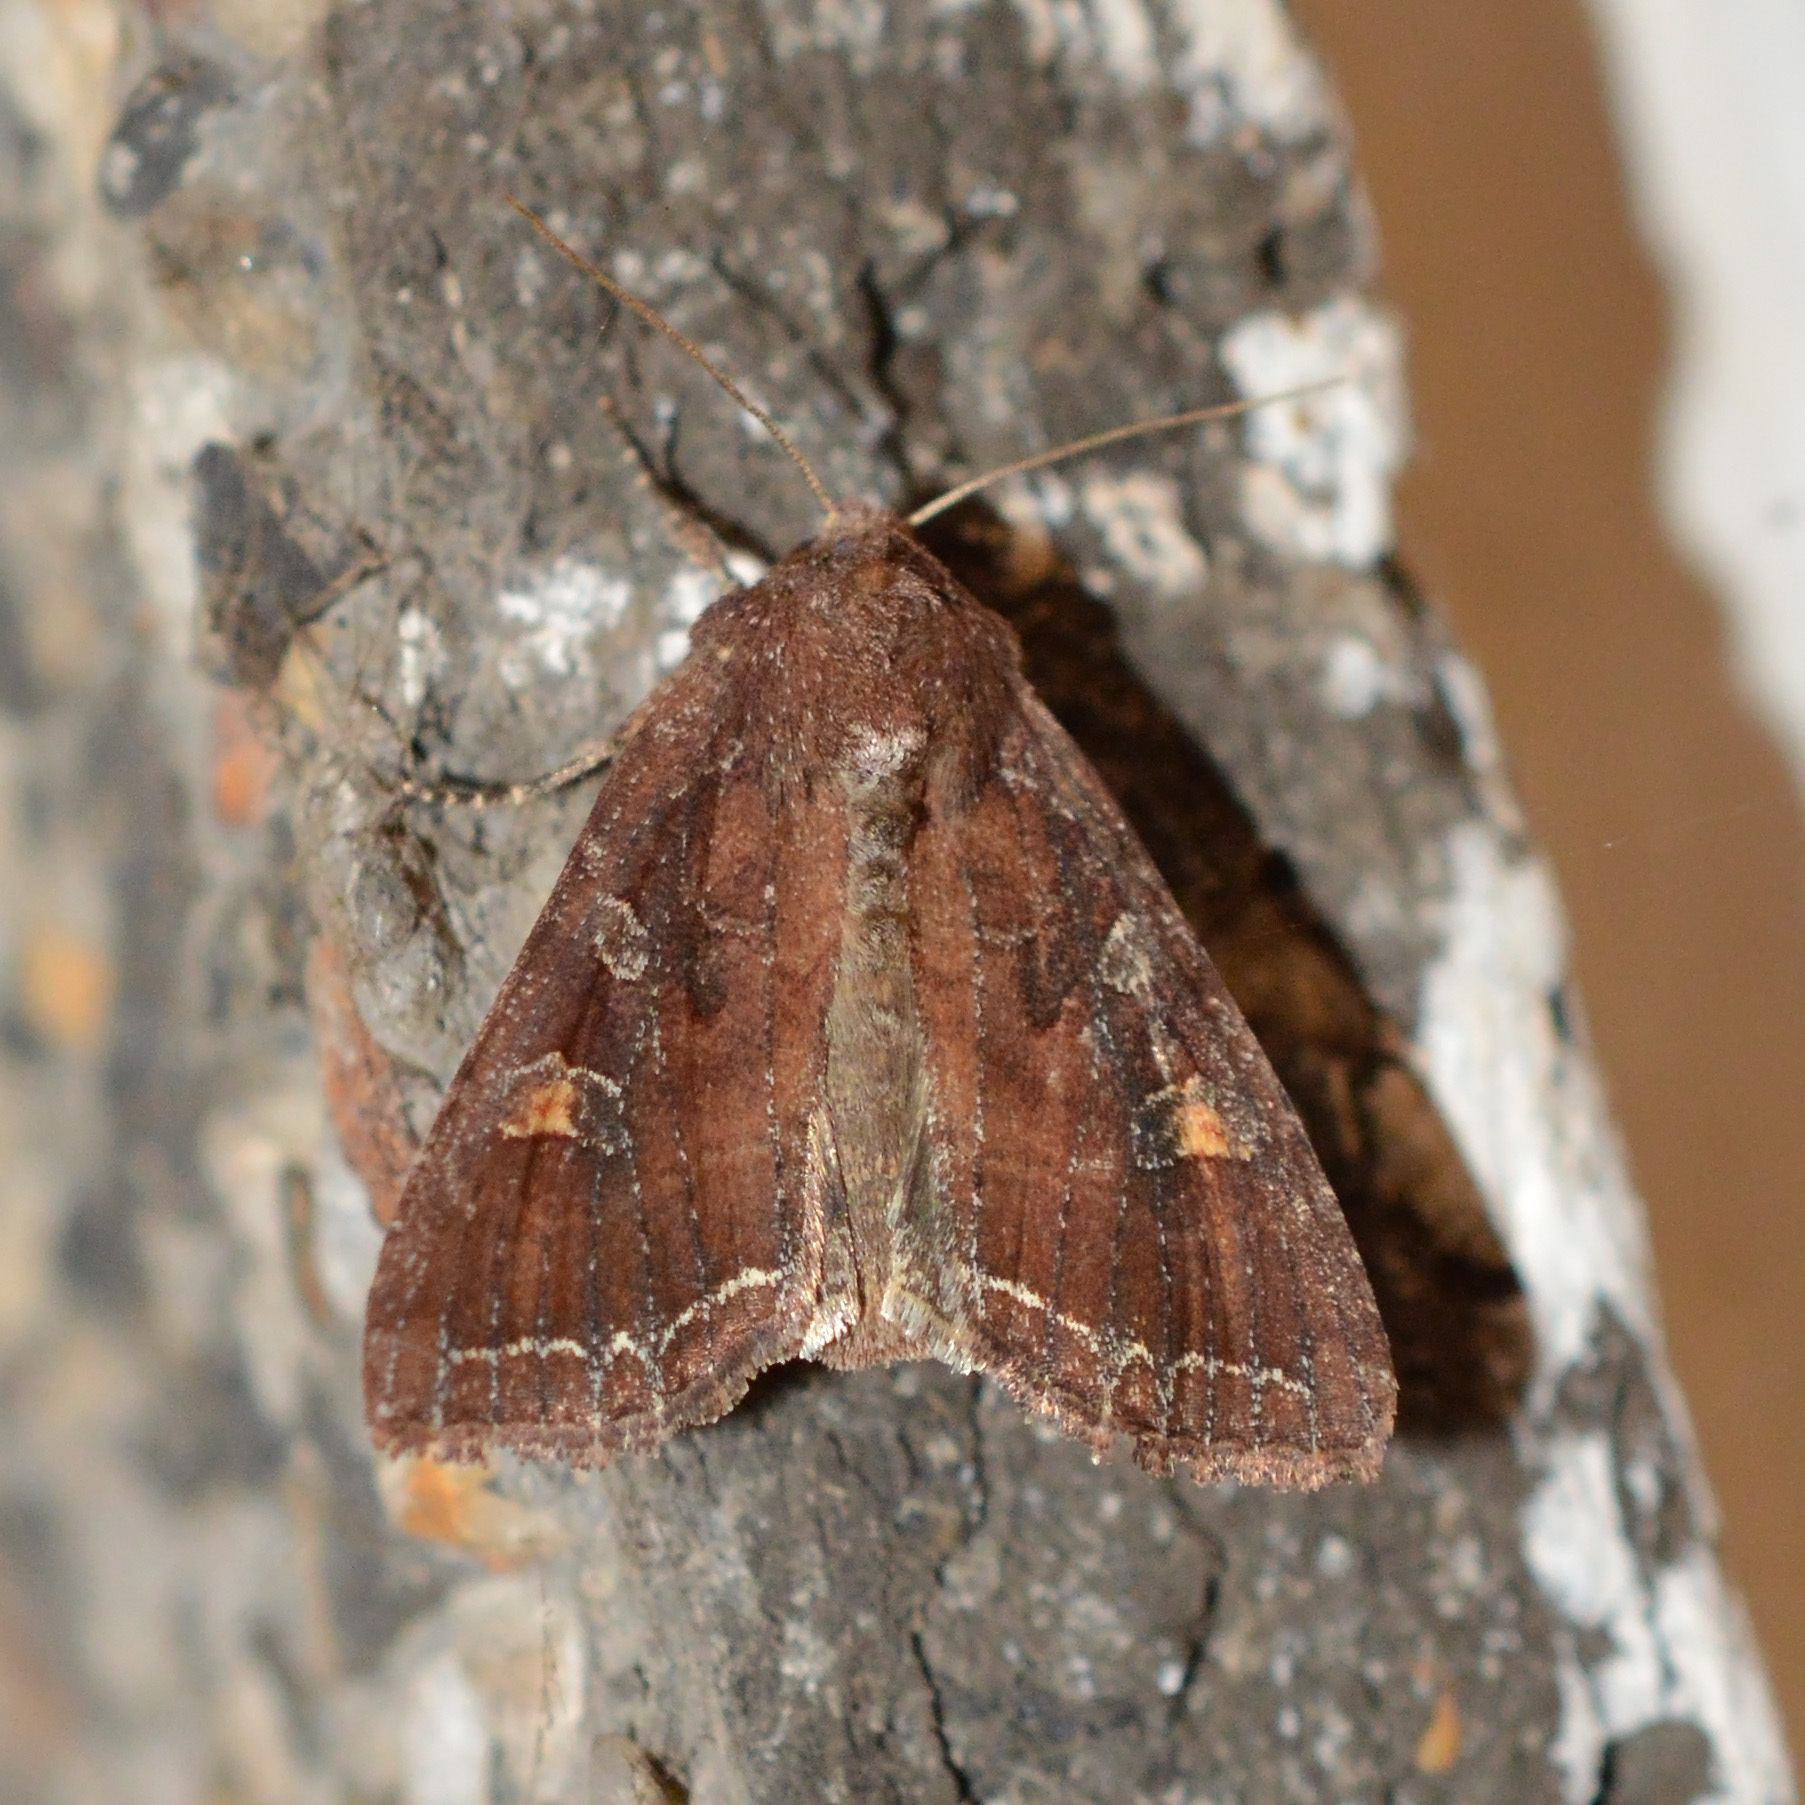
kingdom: Animalia
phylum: Arthropoda
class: Insecta
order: Lepidoptera
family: Noctuidae
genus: Lacanobia
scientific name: Lacanobia oleracea
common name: Bright-line brown-eye
